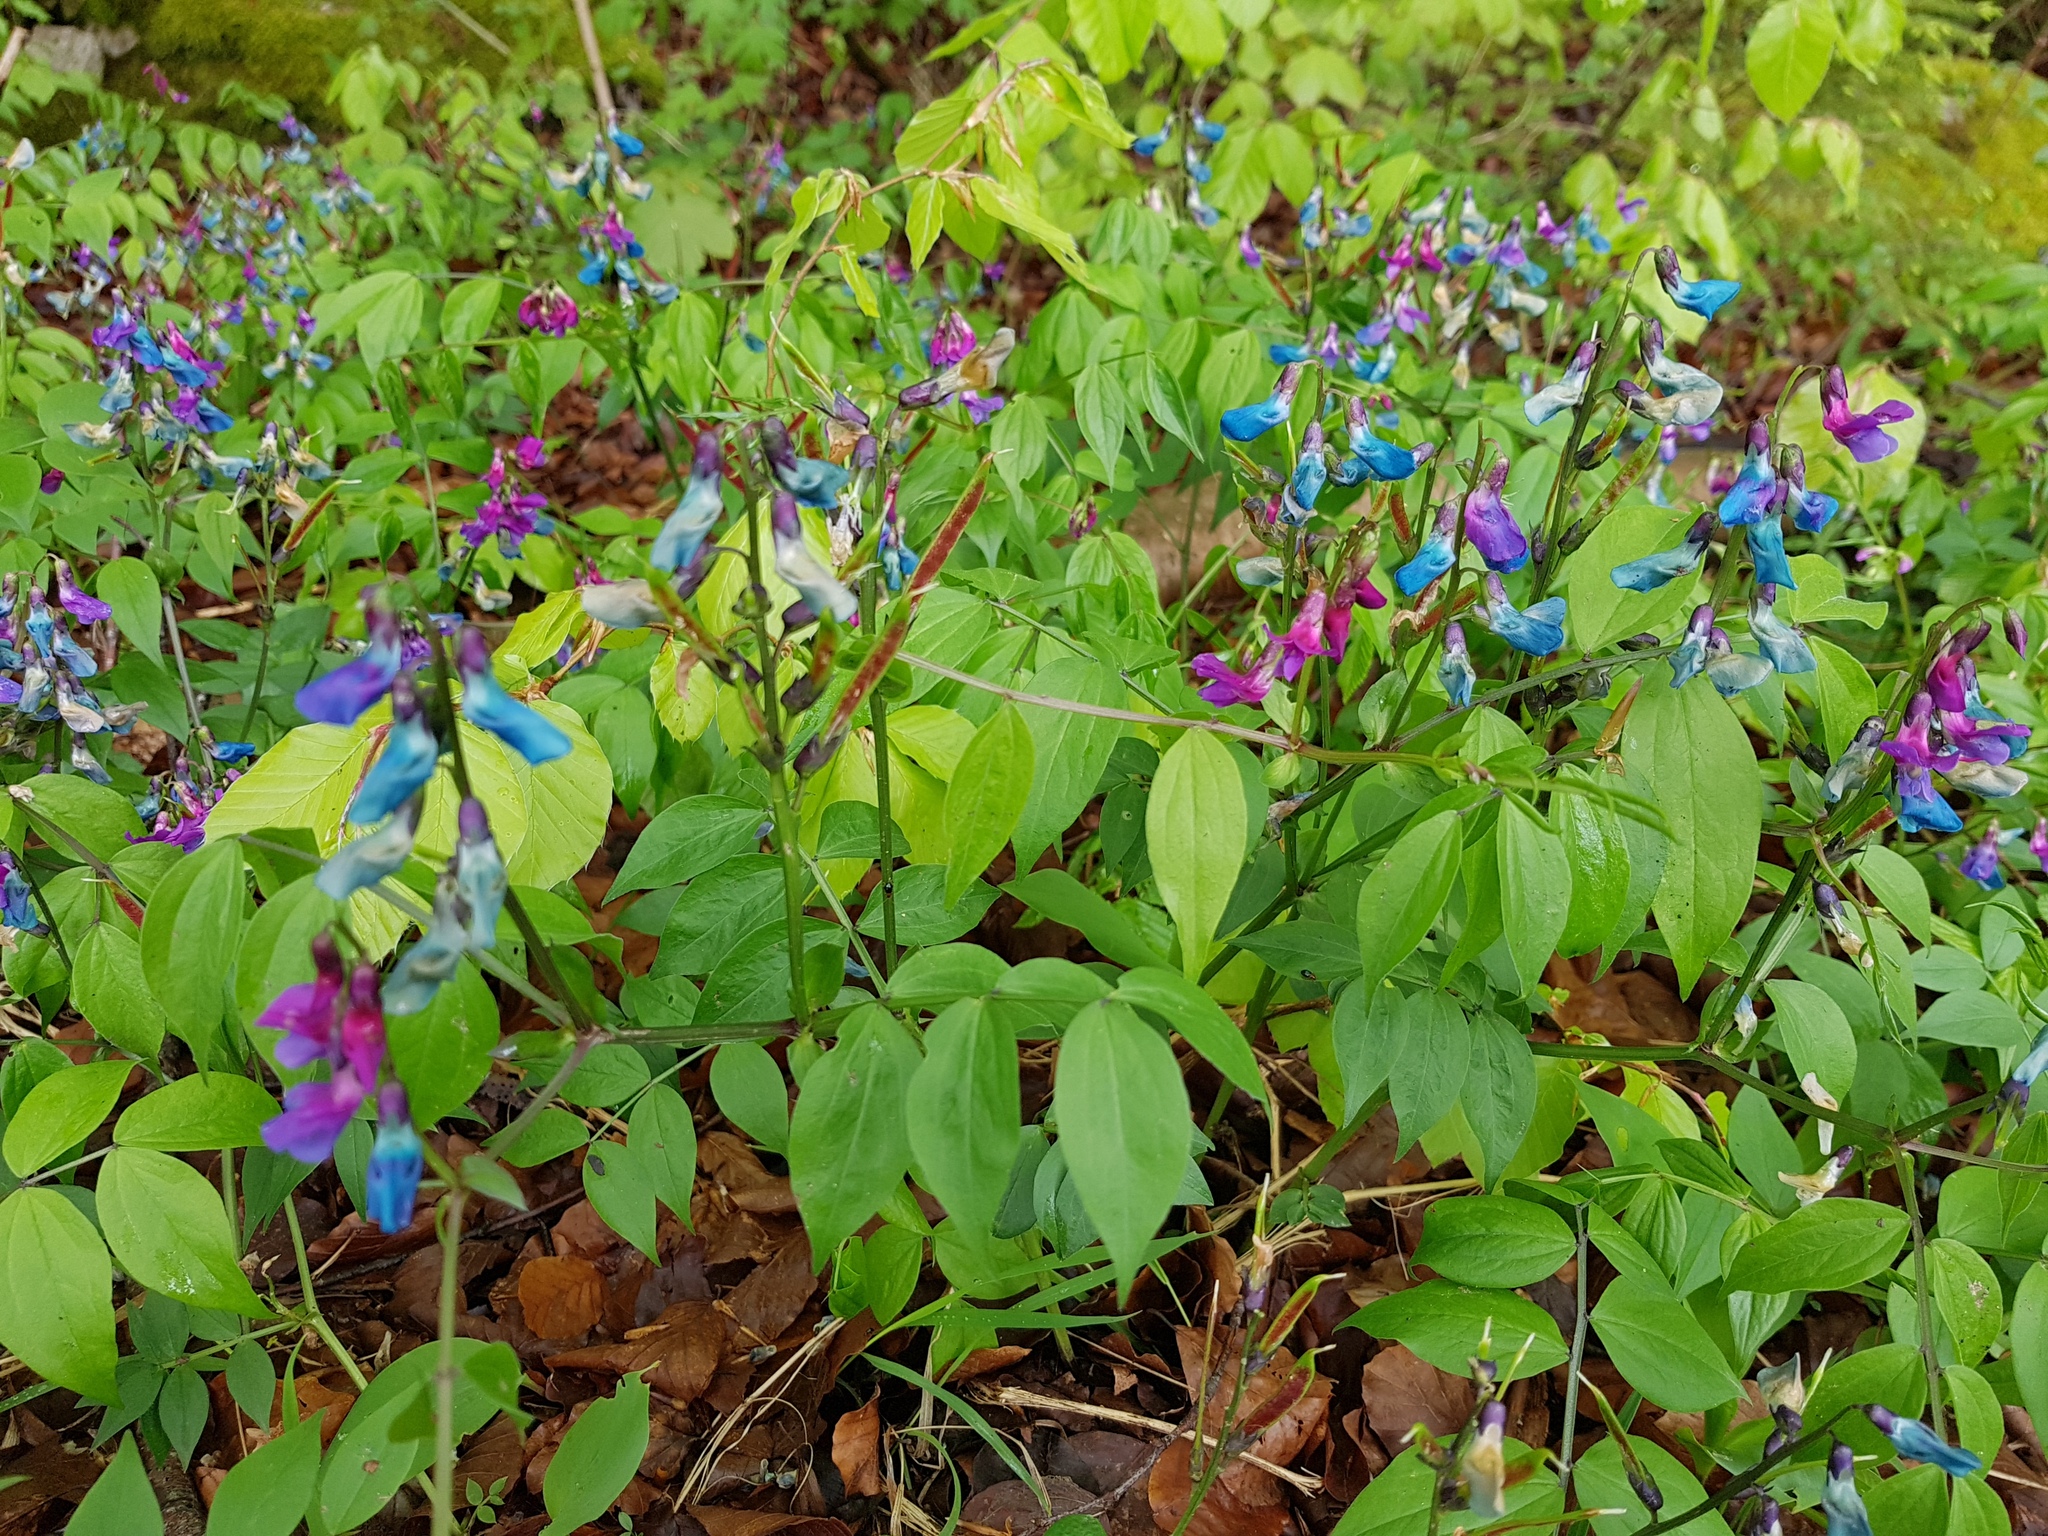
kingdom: Plantae
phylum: Tracheophyta
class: Magnoliopsida
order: Fabales
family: Fabaceae
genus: Lathyrus
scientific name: Lathyrus vernus
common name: Spring pea
